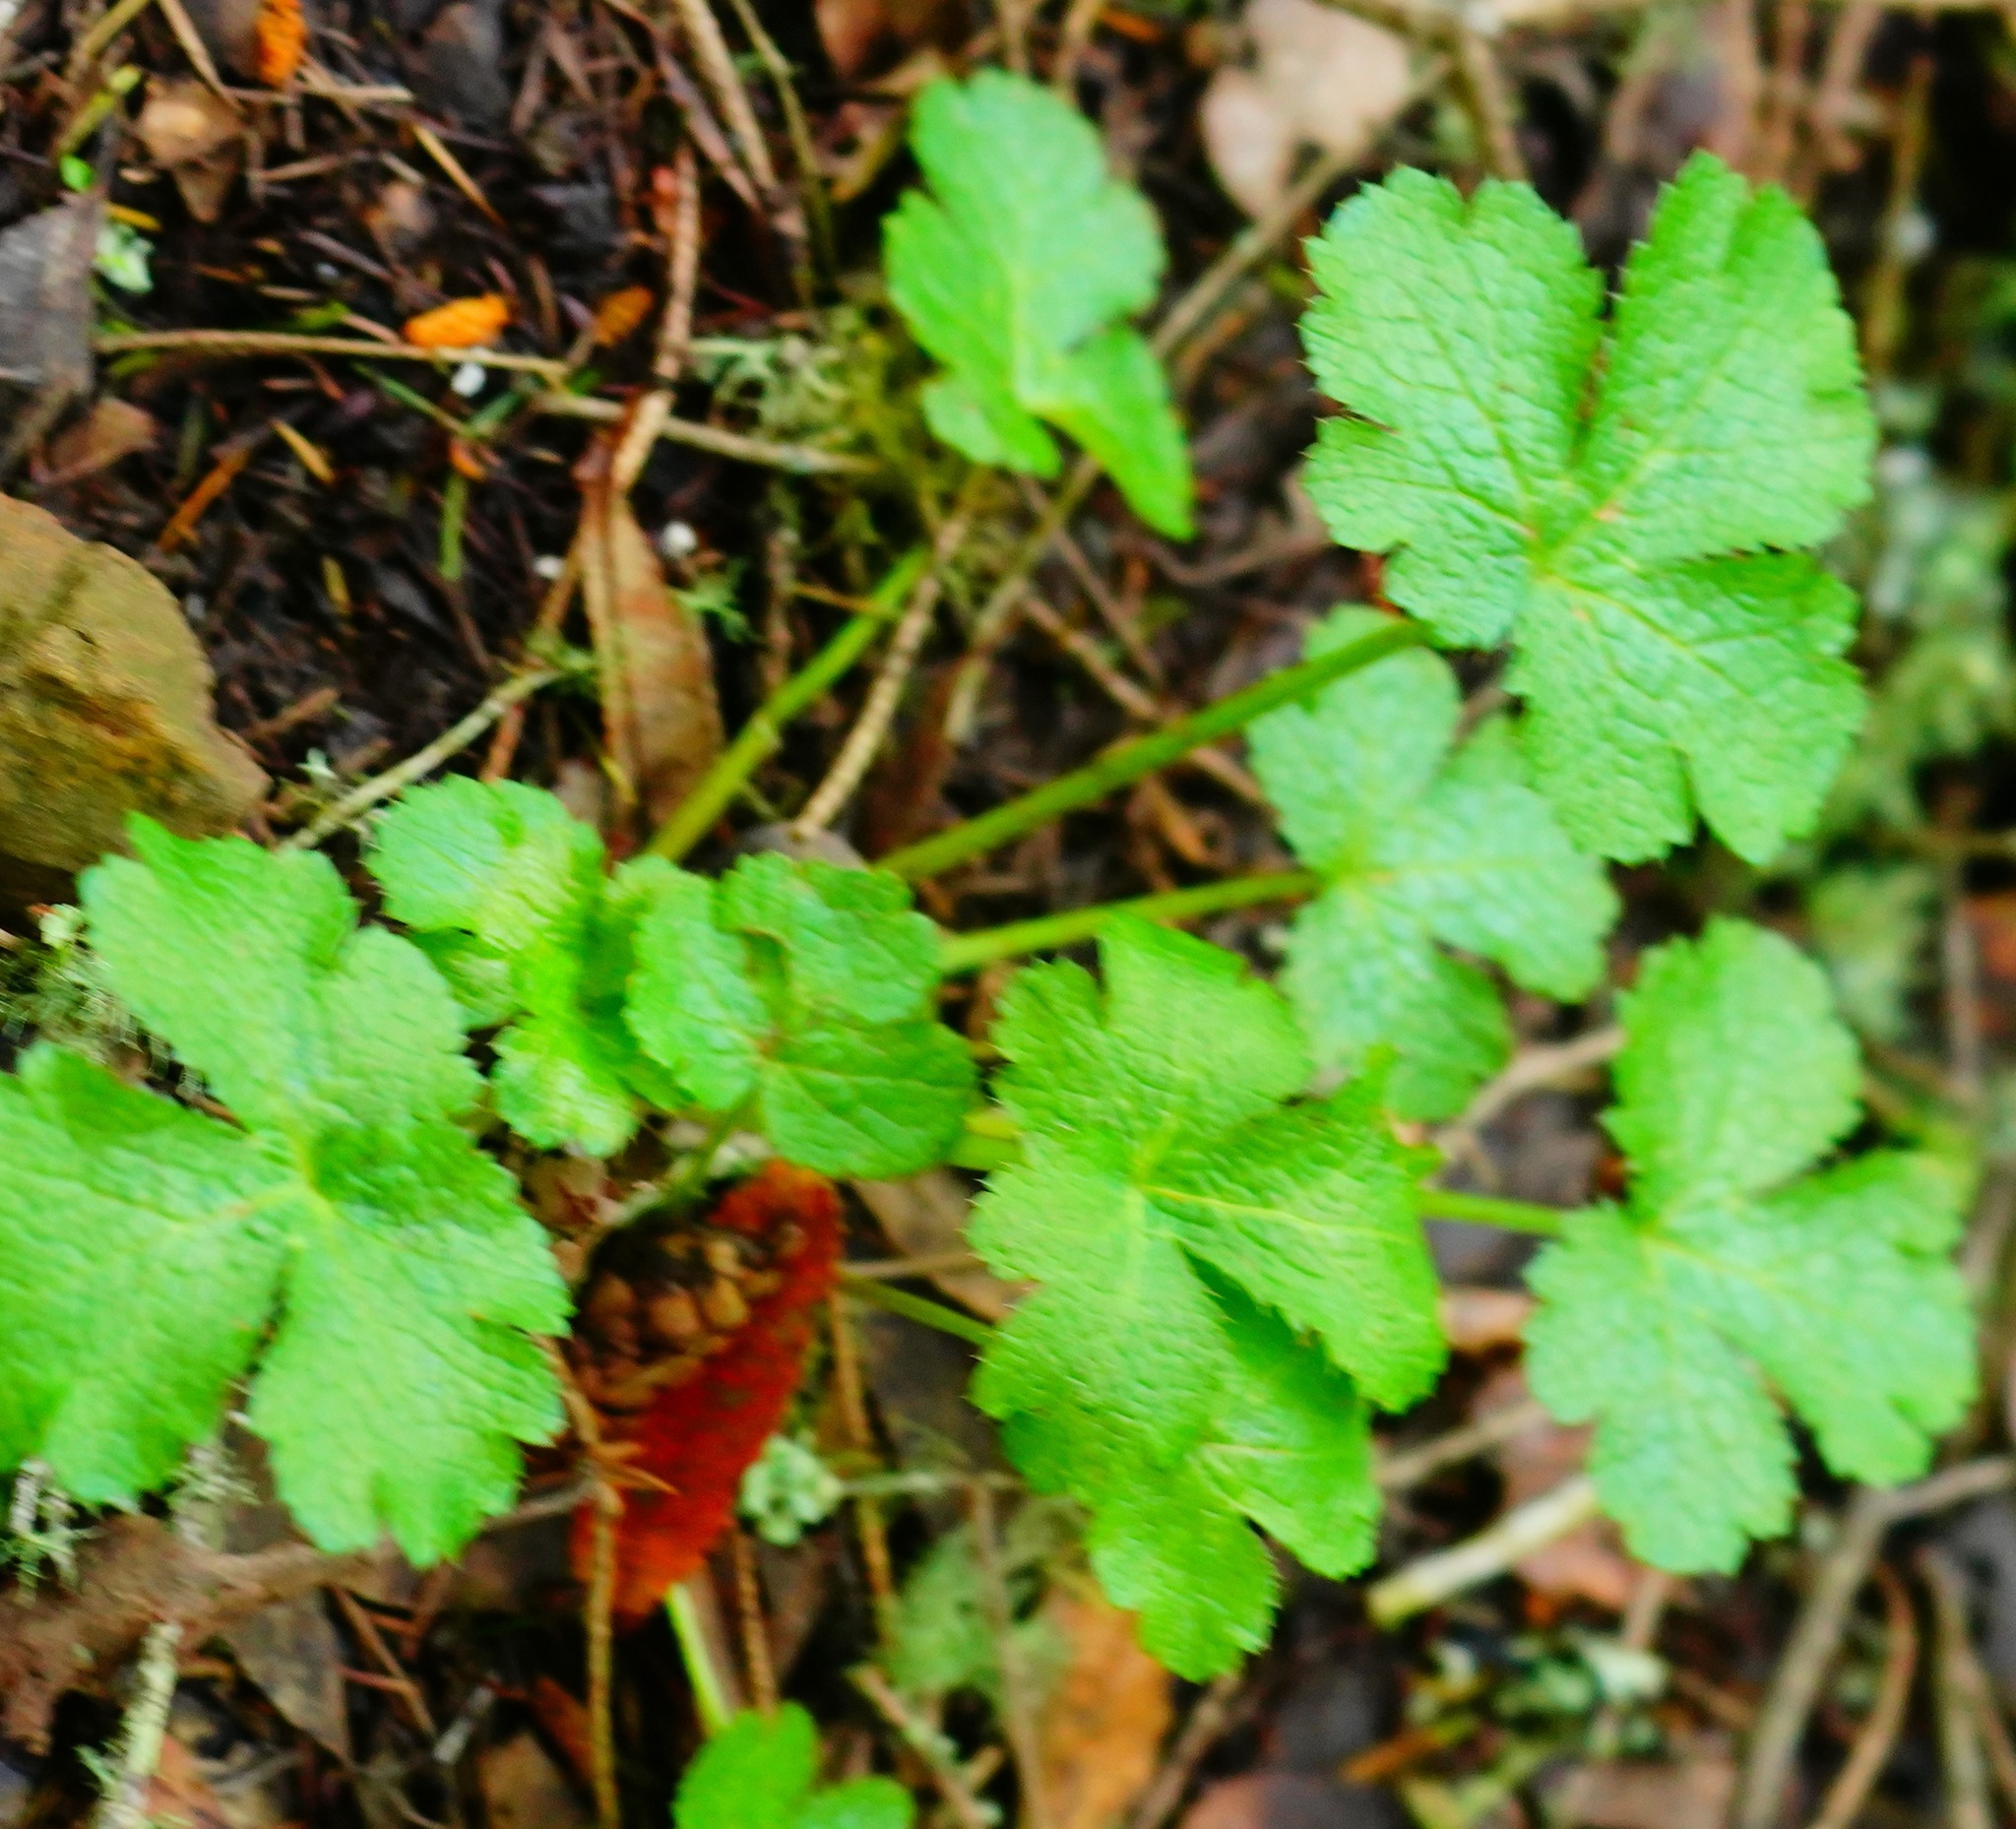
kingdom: Plantae
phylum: Tracheophyta
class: Magnoliopsida
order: Apiales
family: Apiaceae
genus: Sanicula
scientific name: Sanicula crassicaulis
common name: Western snakeroot
